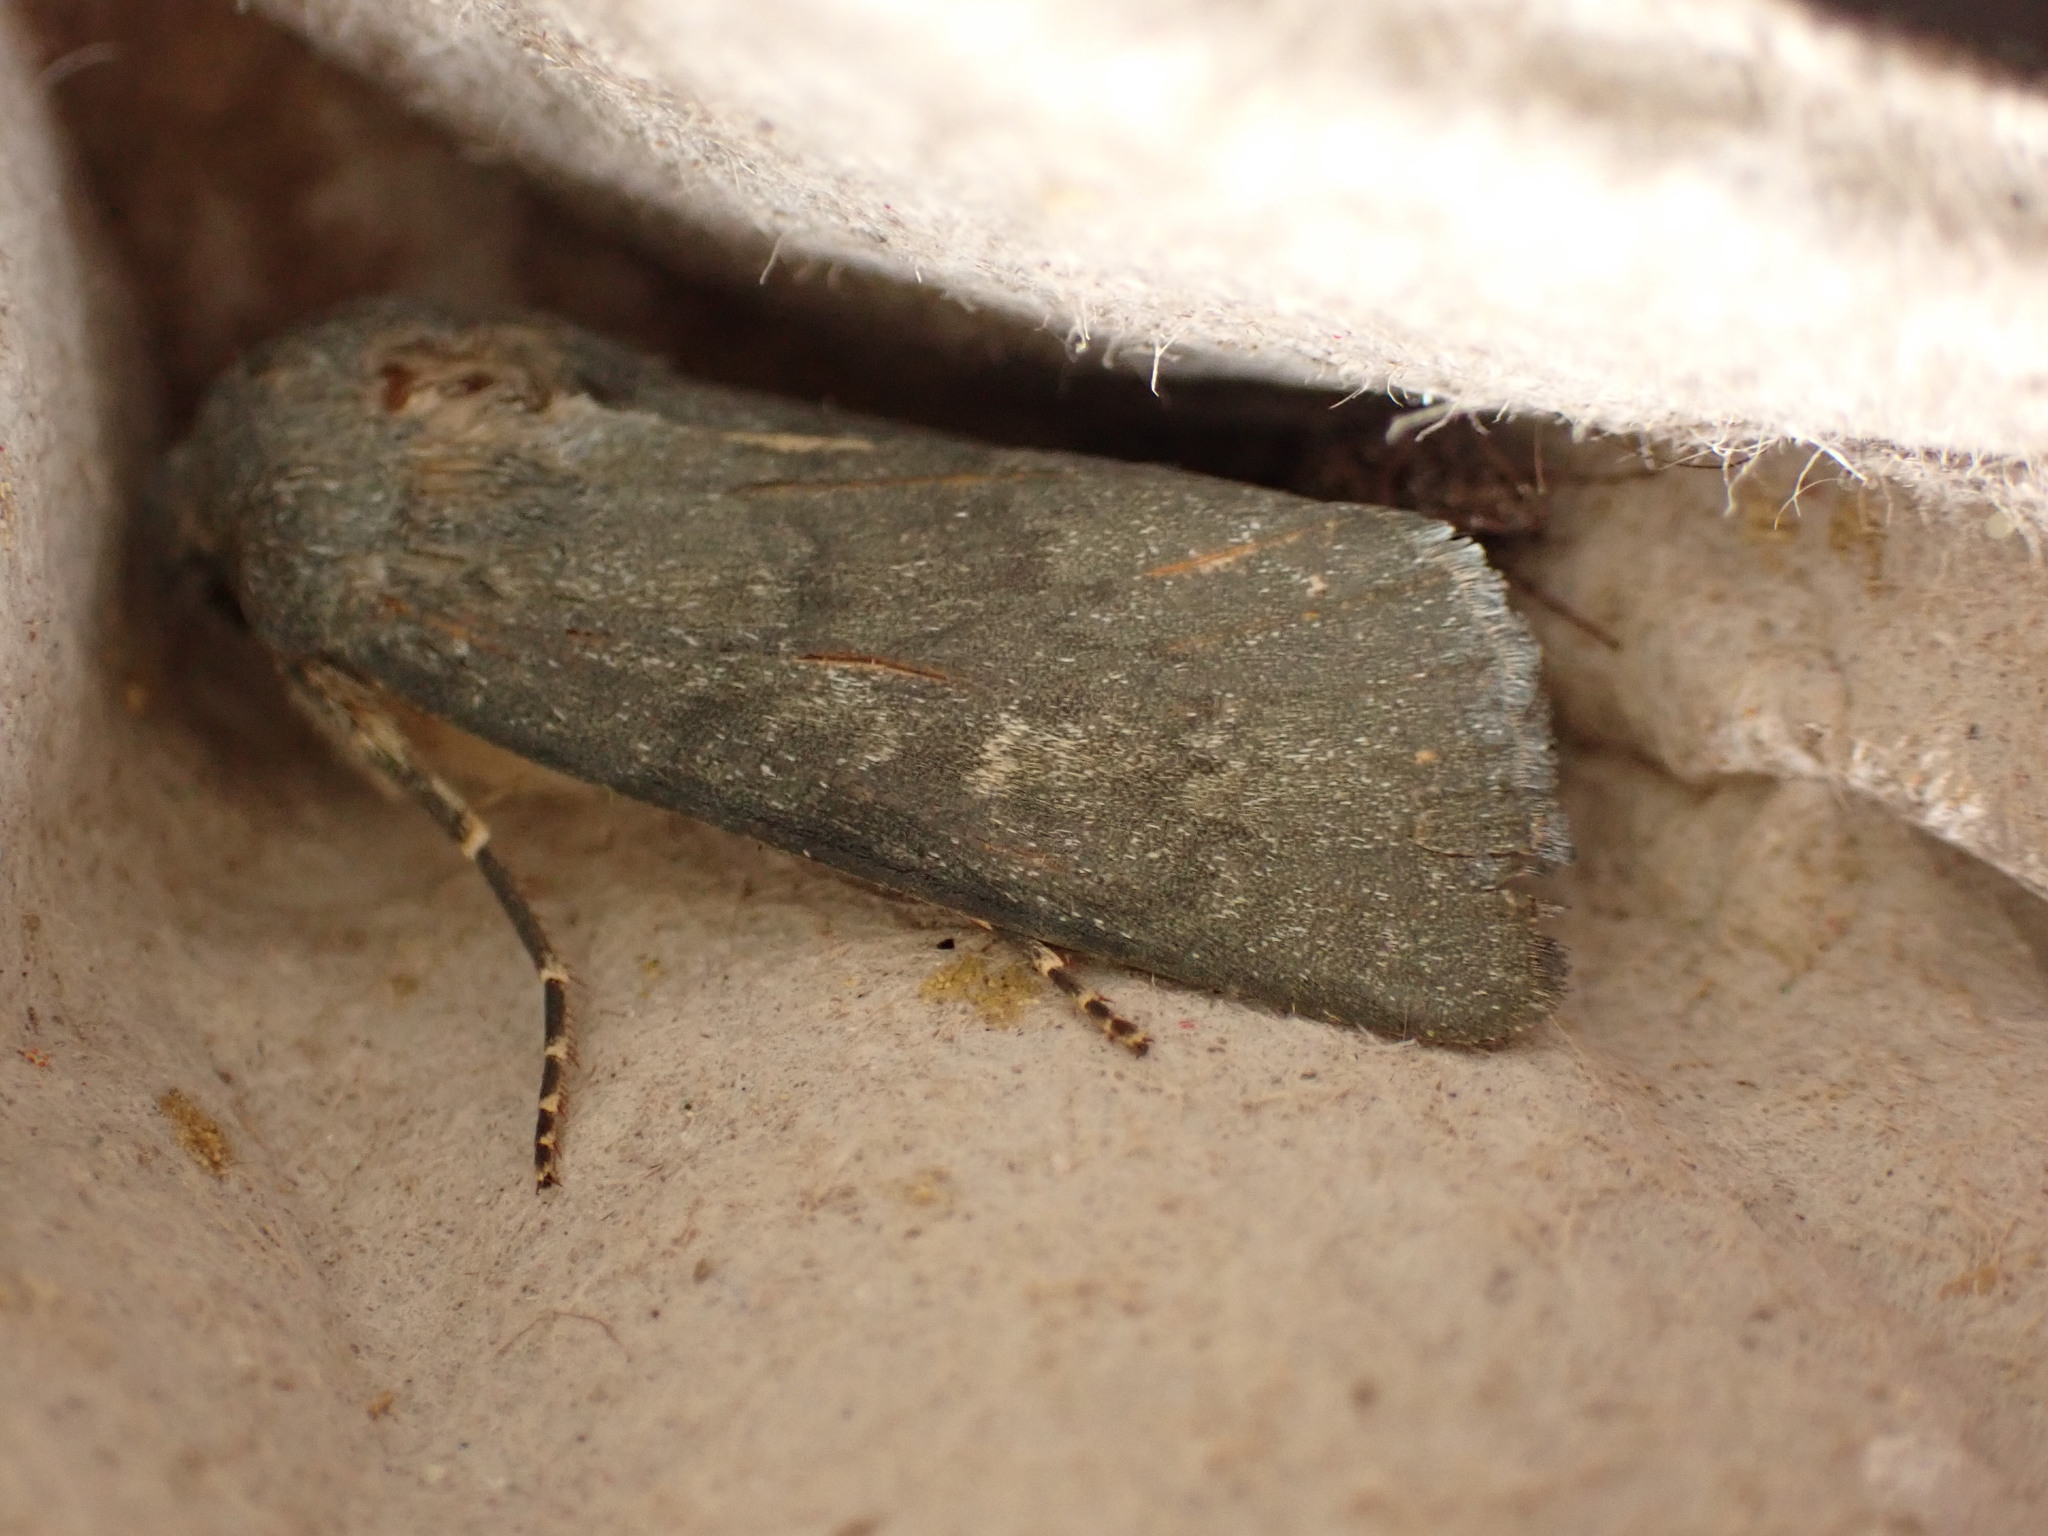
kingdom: Animalia
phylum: Arthropoda
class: Insecta
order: Lepidoptera
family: Noctuidae
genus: Physetica
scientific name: Physetica caerulea
